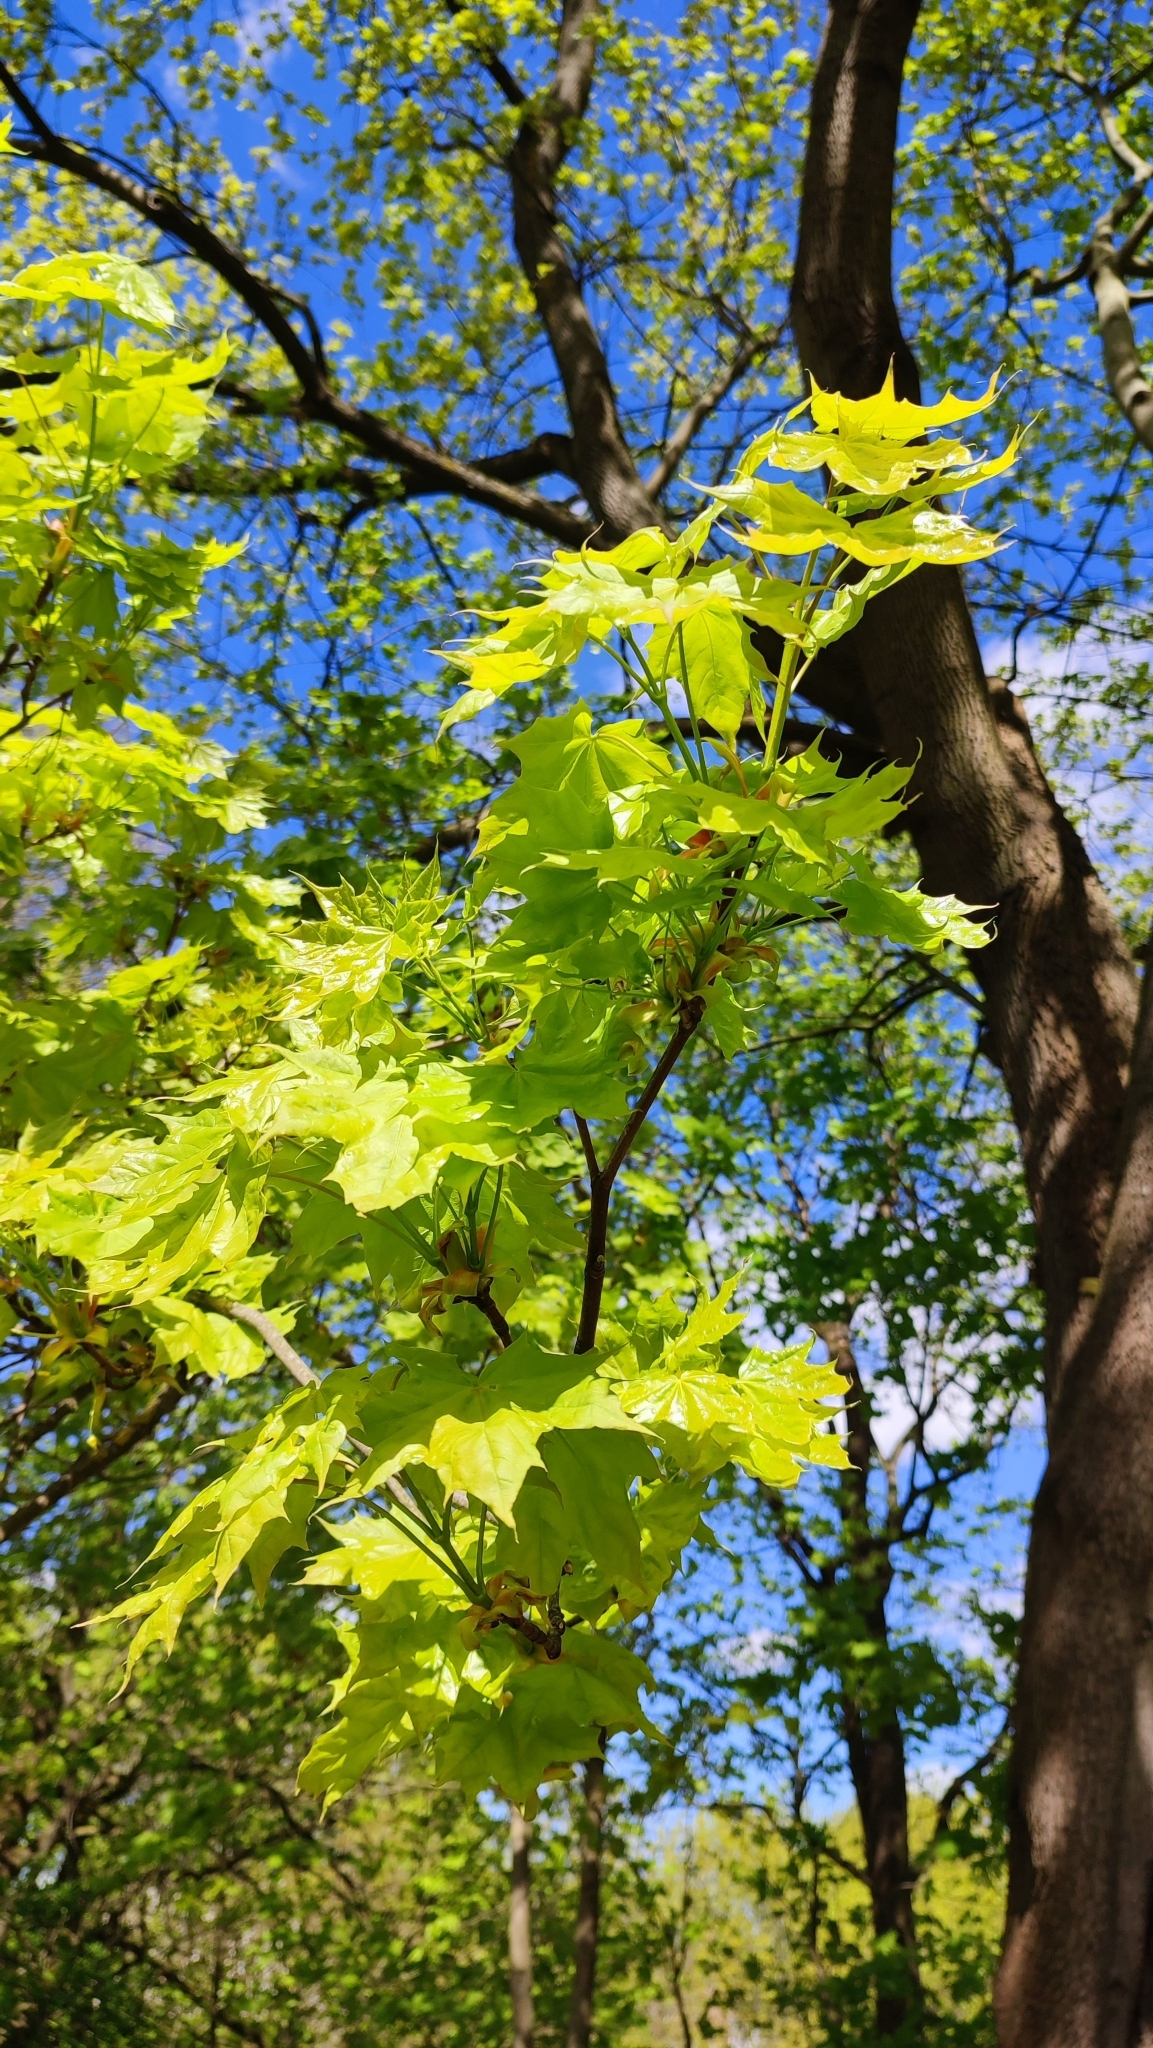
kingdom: Plantae
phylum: Tracheophyta
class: Magnoliopsida
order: Sapindales
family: Sapindaceae
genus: Acer
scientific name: Acer platanoides
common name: Norway maple
